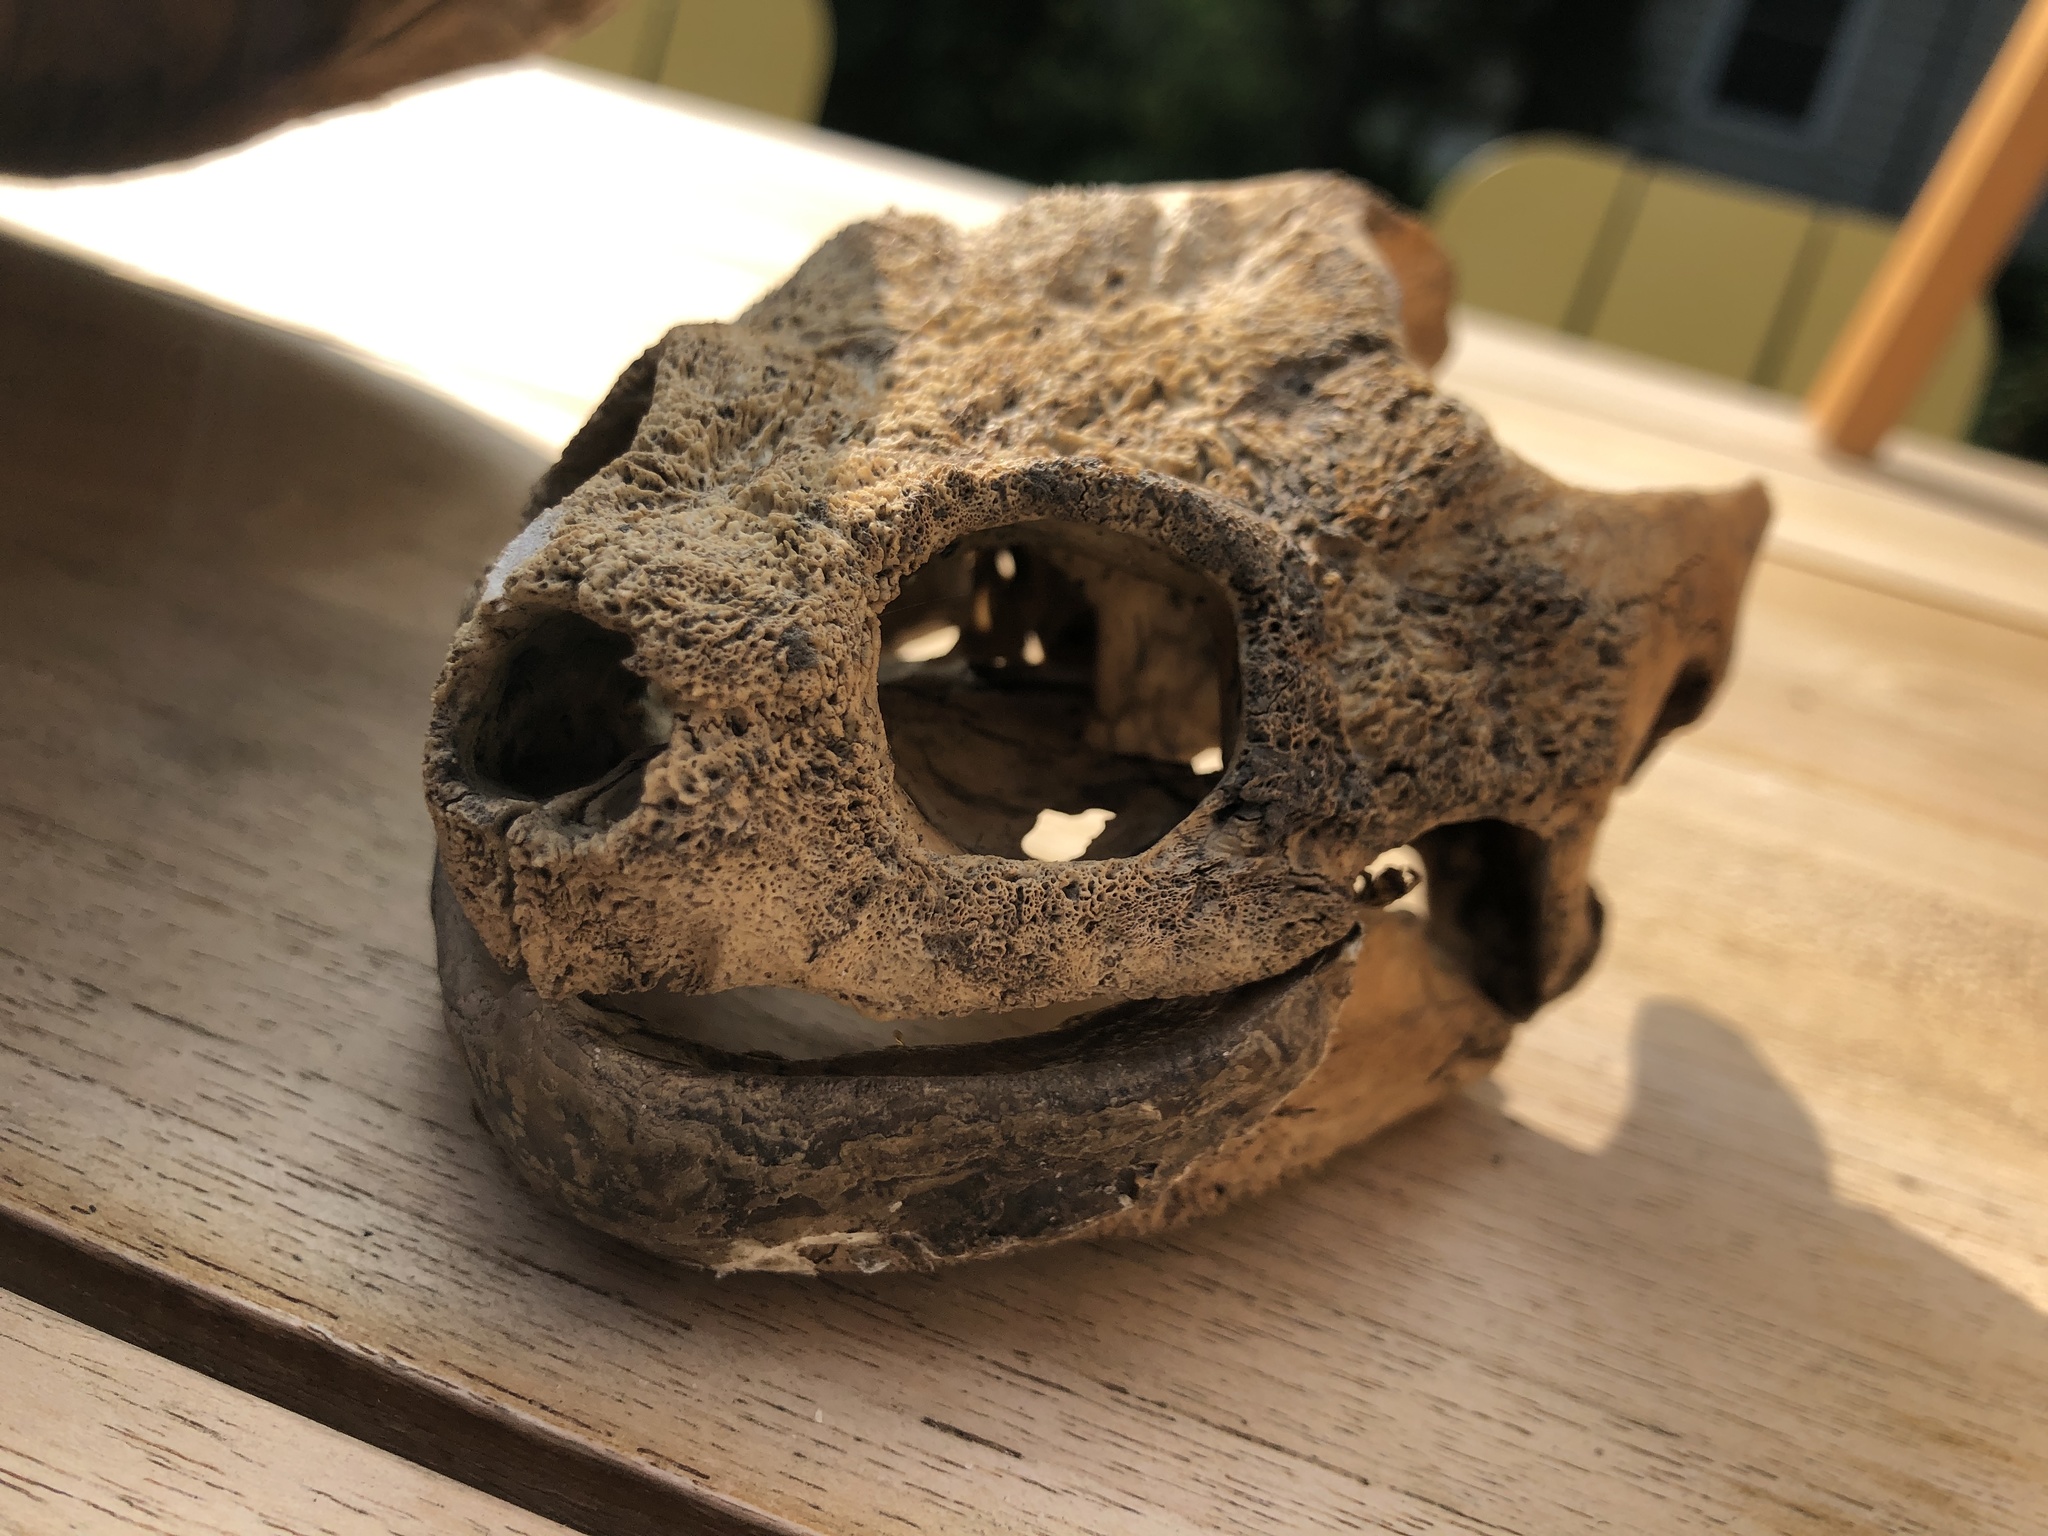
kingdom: Animalia
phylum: Chordata
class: Testudines
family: Chelydridae
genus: Chelydra
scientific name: Chelydra serpentina
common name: Common snapping turtle
